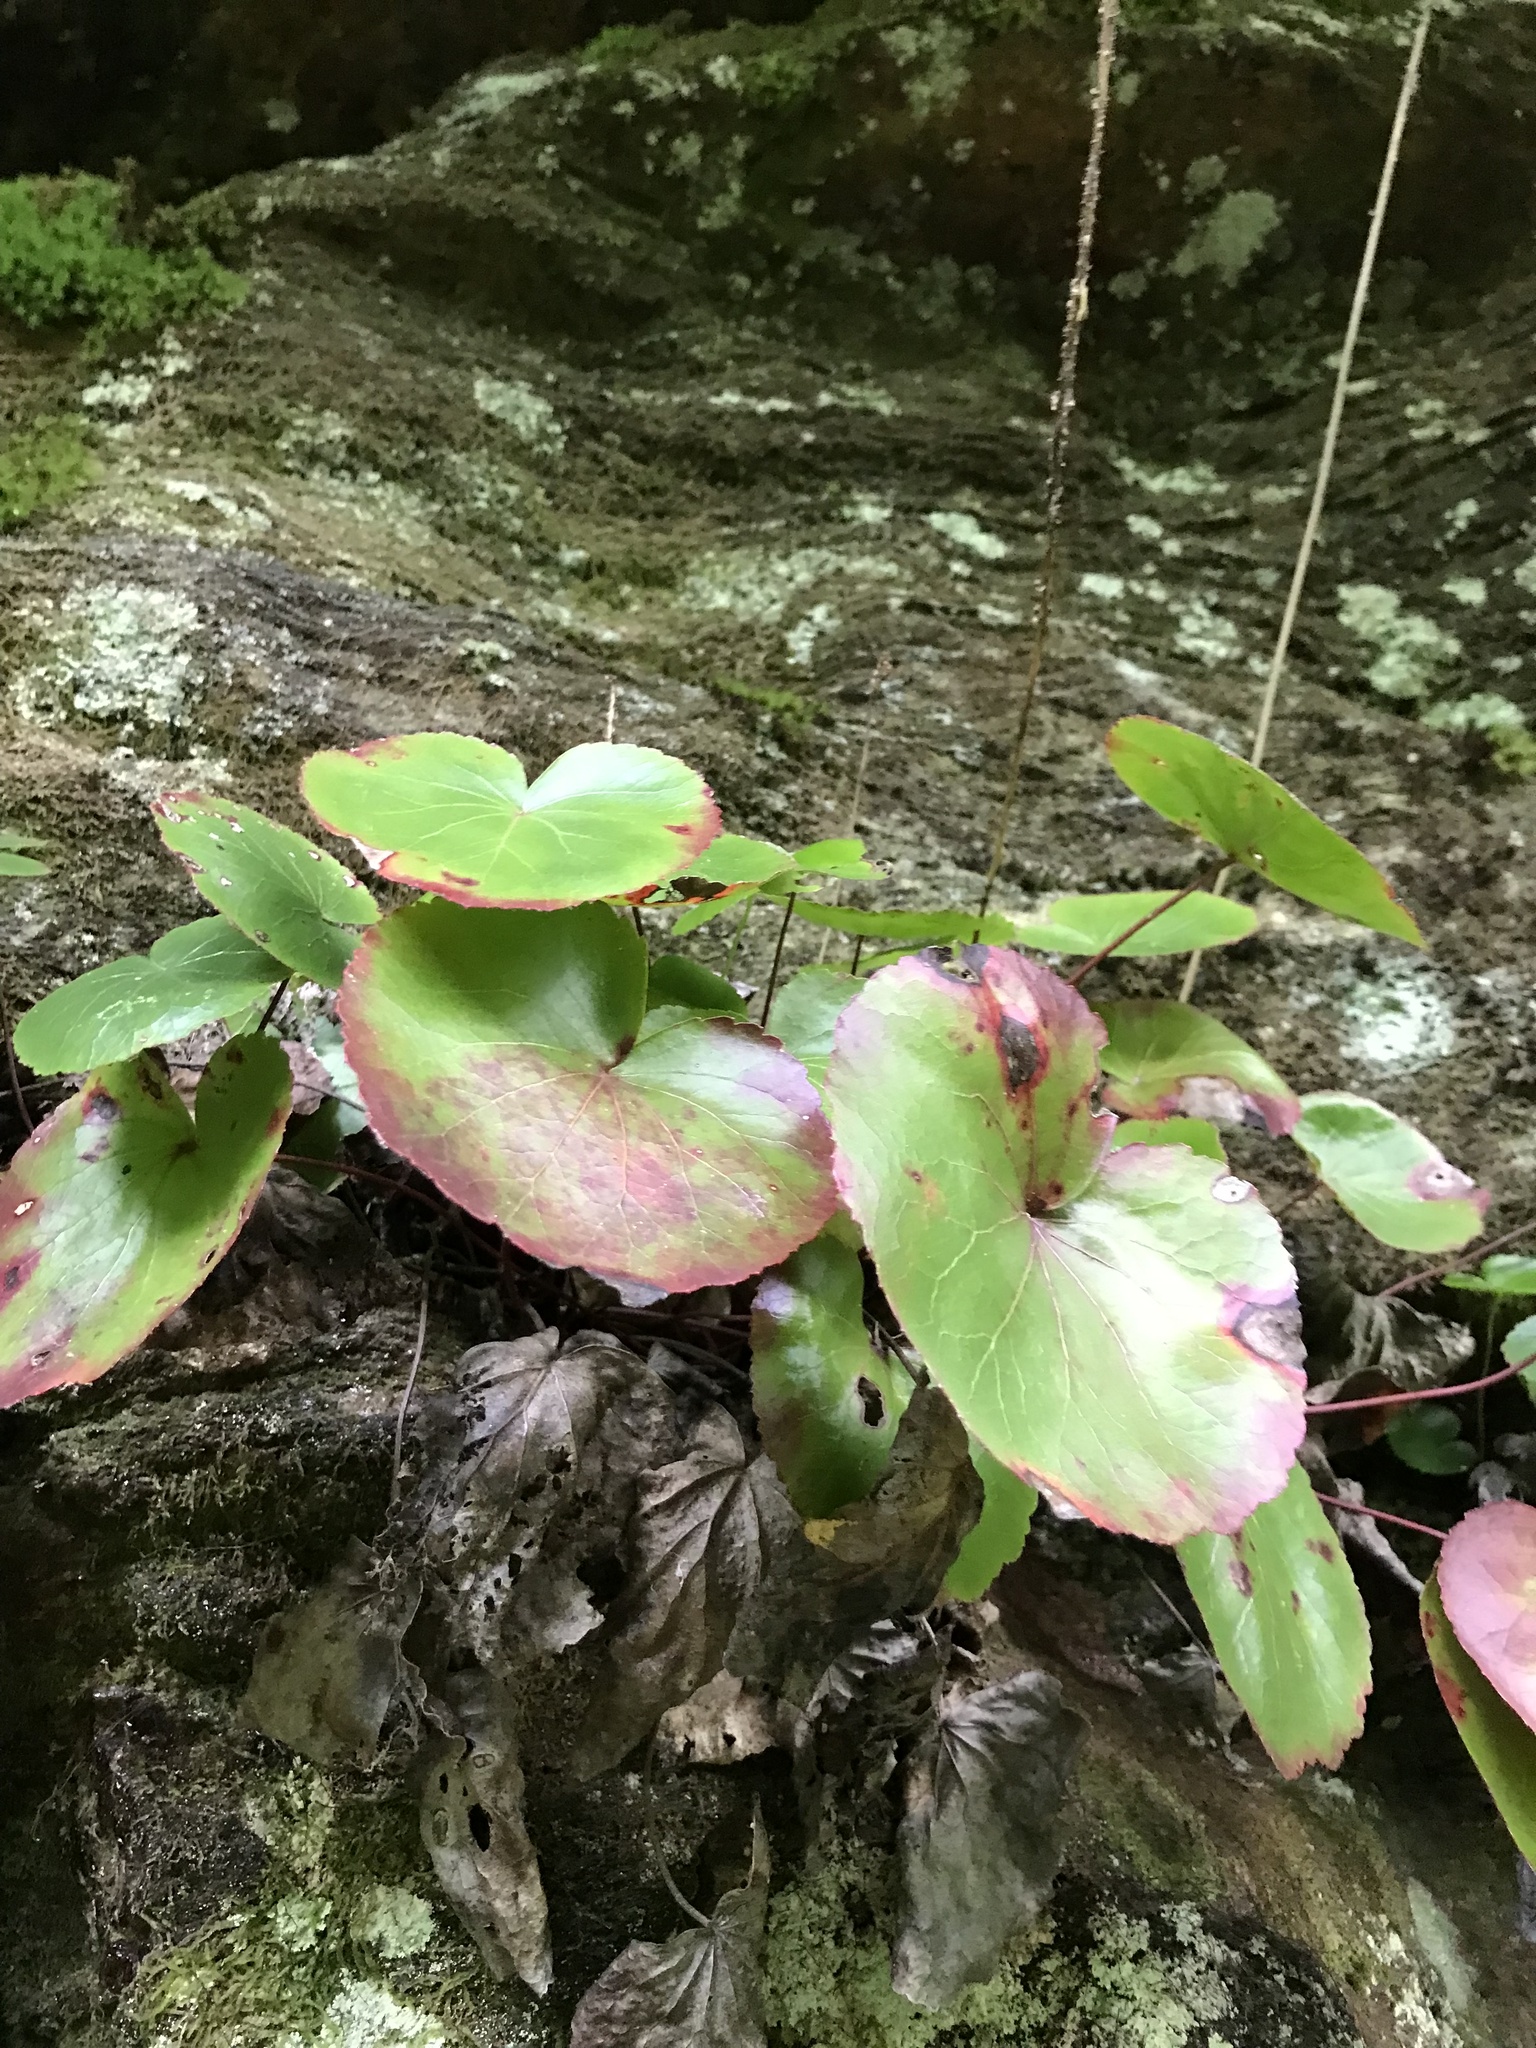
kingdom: Plantae
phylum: Tracheophyta
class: Magnoliopsida
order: Ericales
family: Diapensiaceae
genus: Galax
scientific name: Galax urceolata
